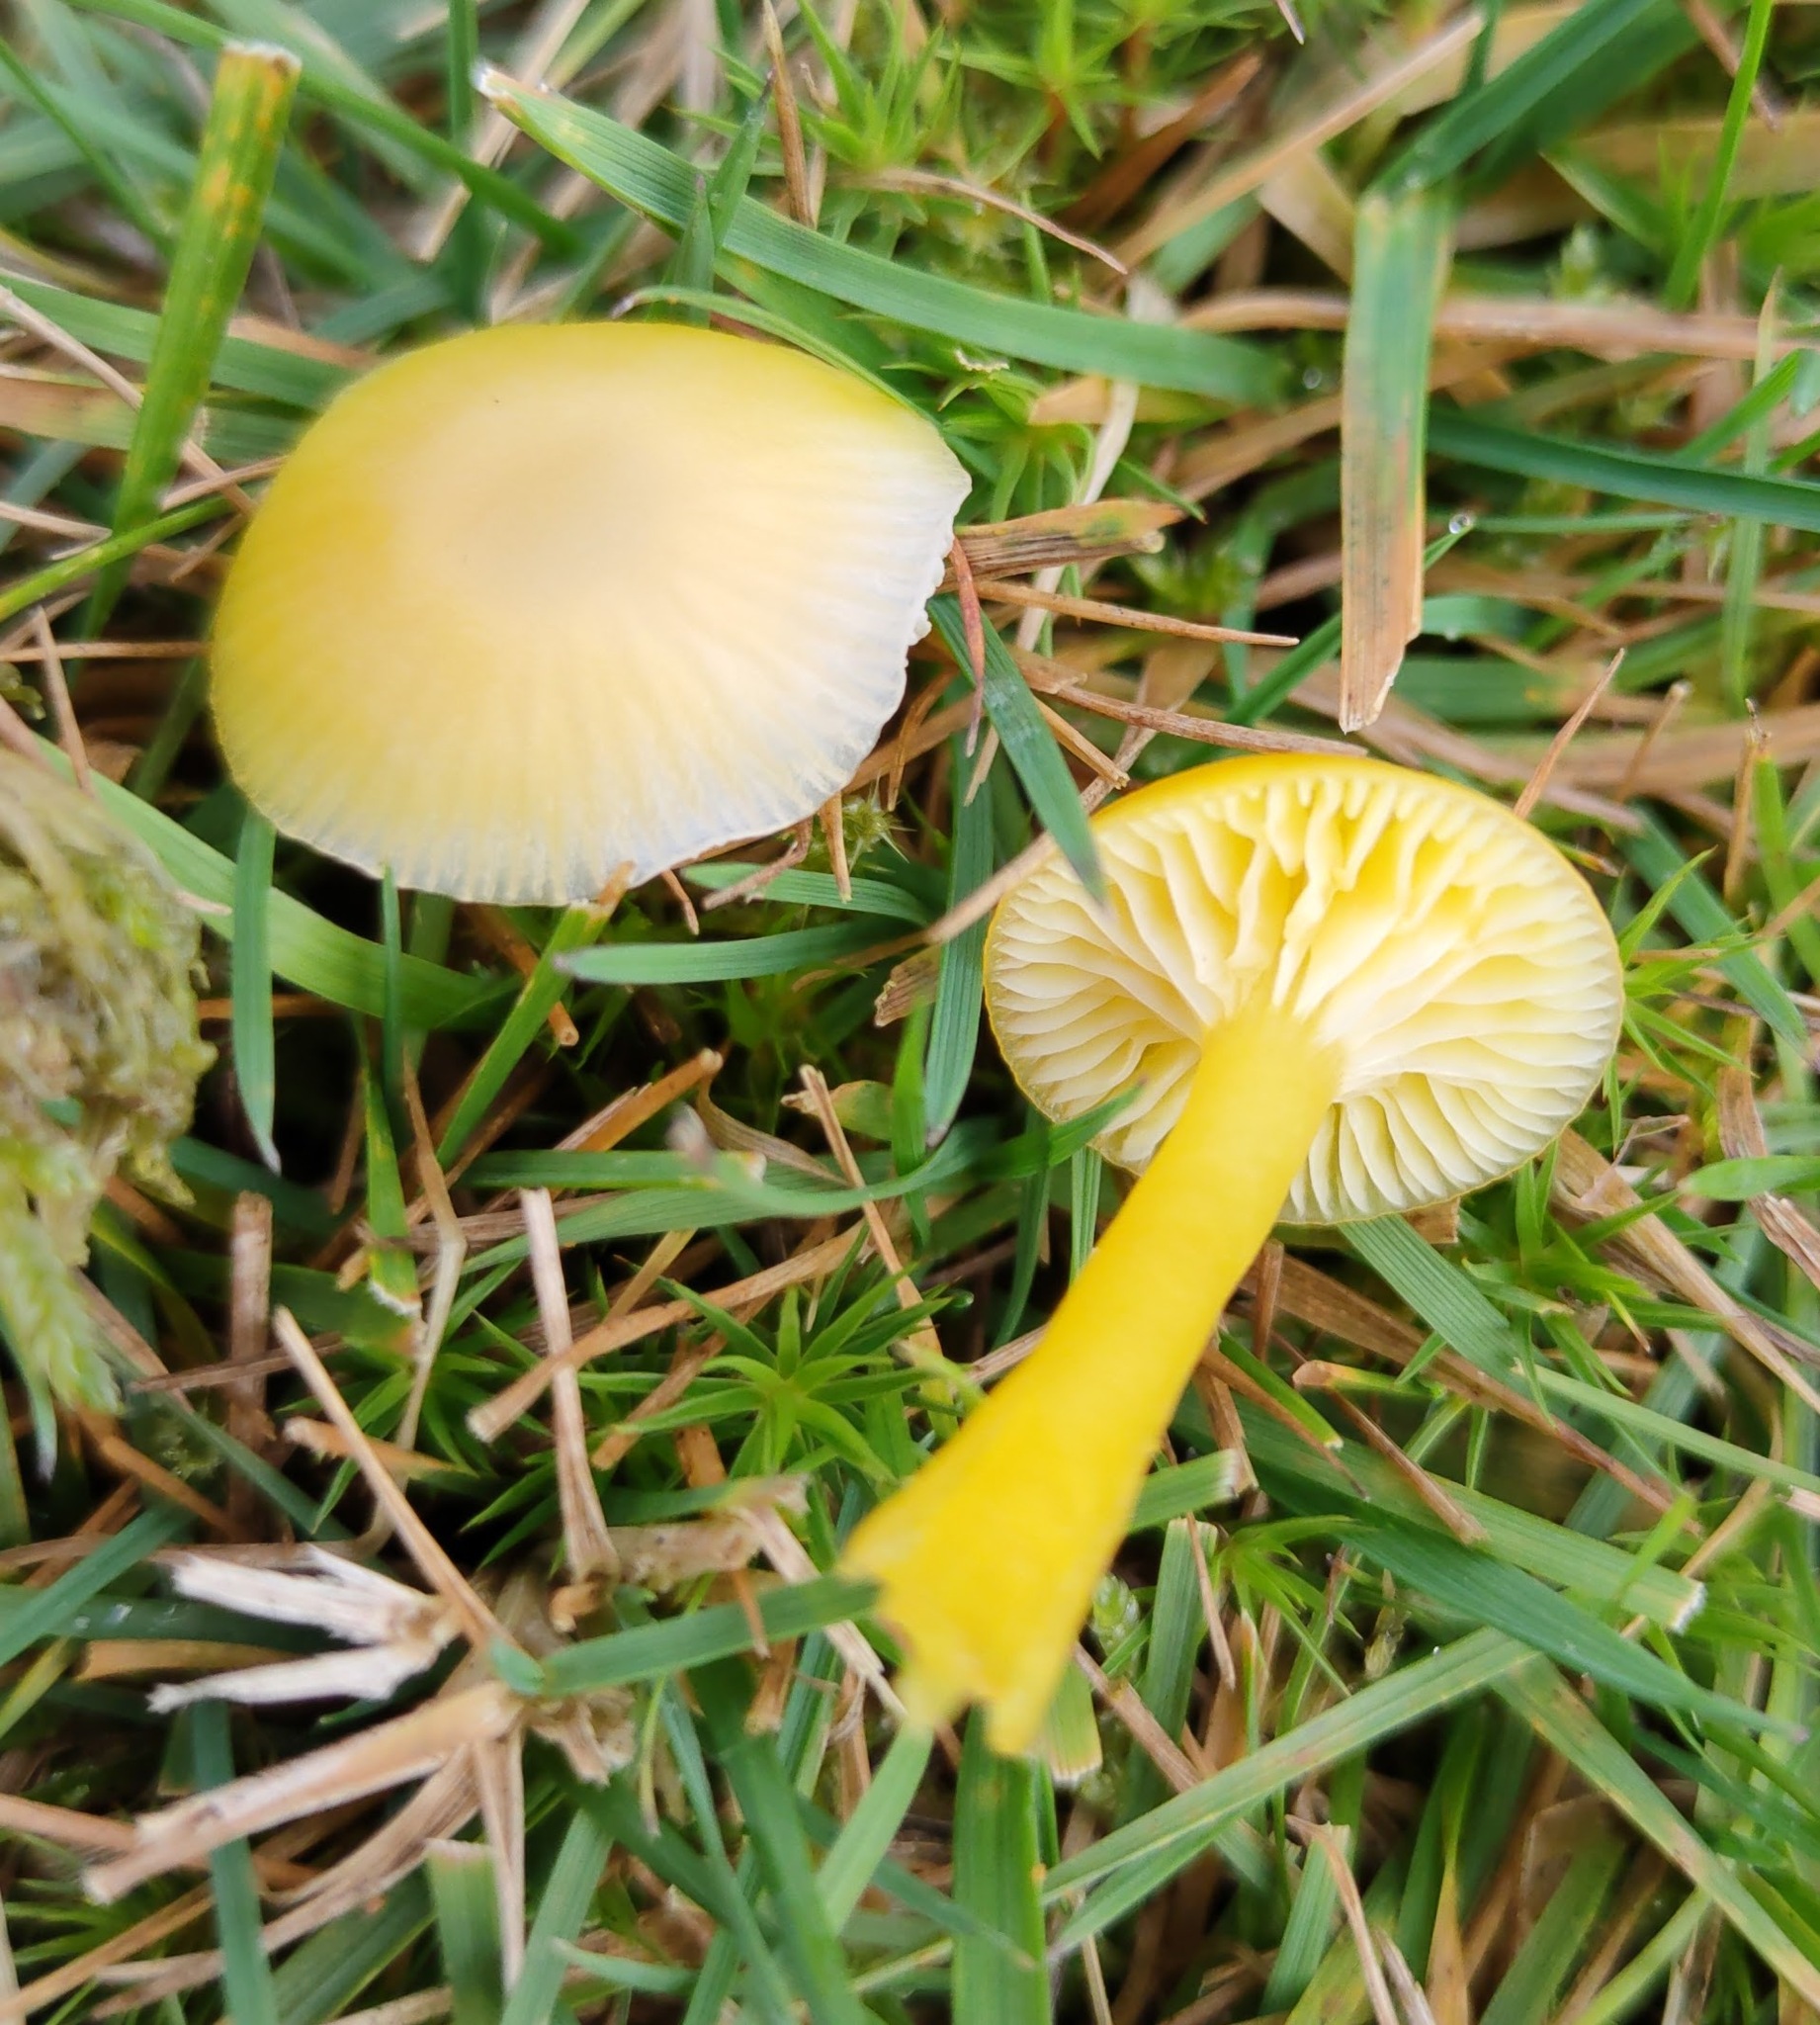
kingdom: Fungi
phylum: Basidiomycota
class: Agaricomycetes
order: Agaricales
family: Hygrophoraceae
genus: Hygrocybe
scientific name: Hygrocybe ceracea
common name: Butter waxcap
